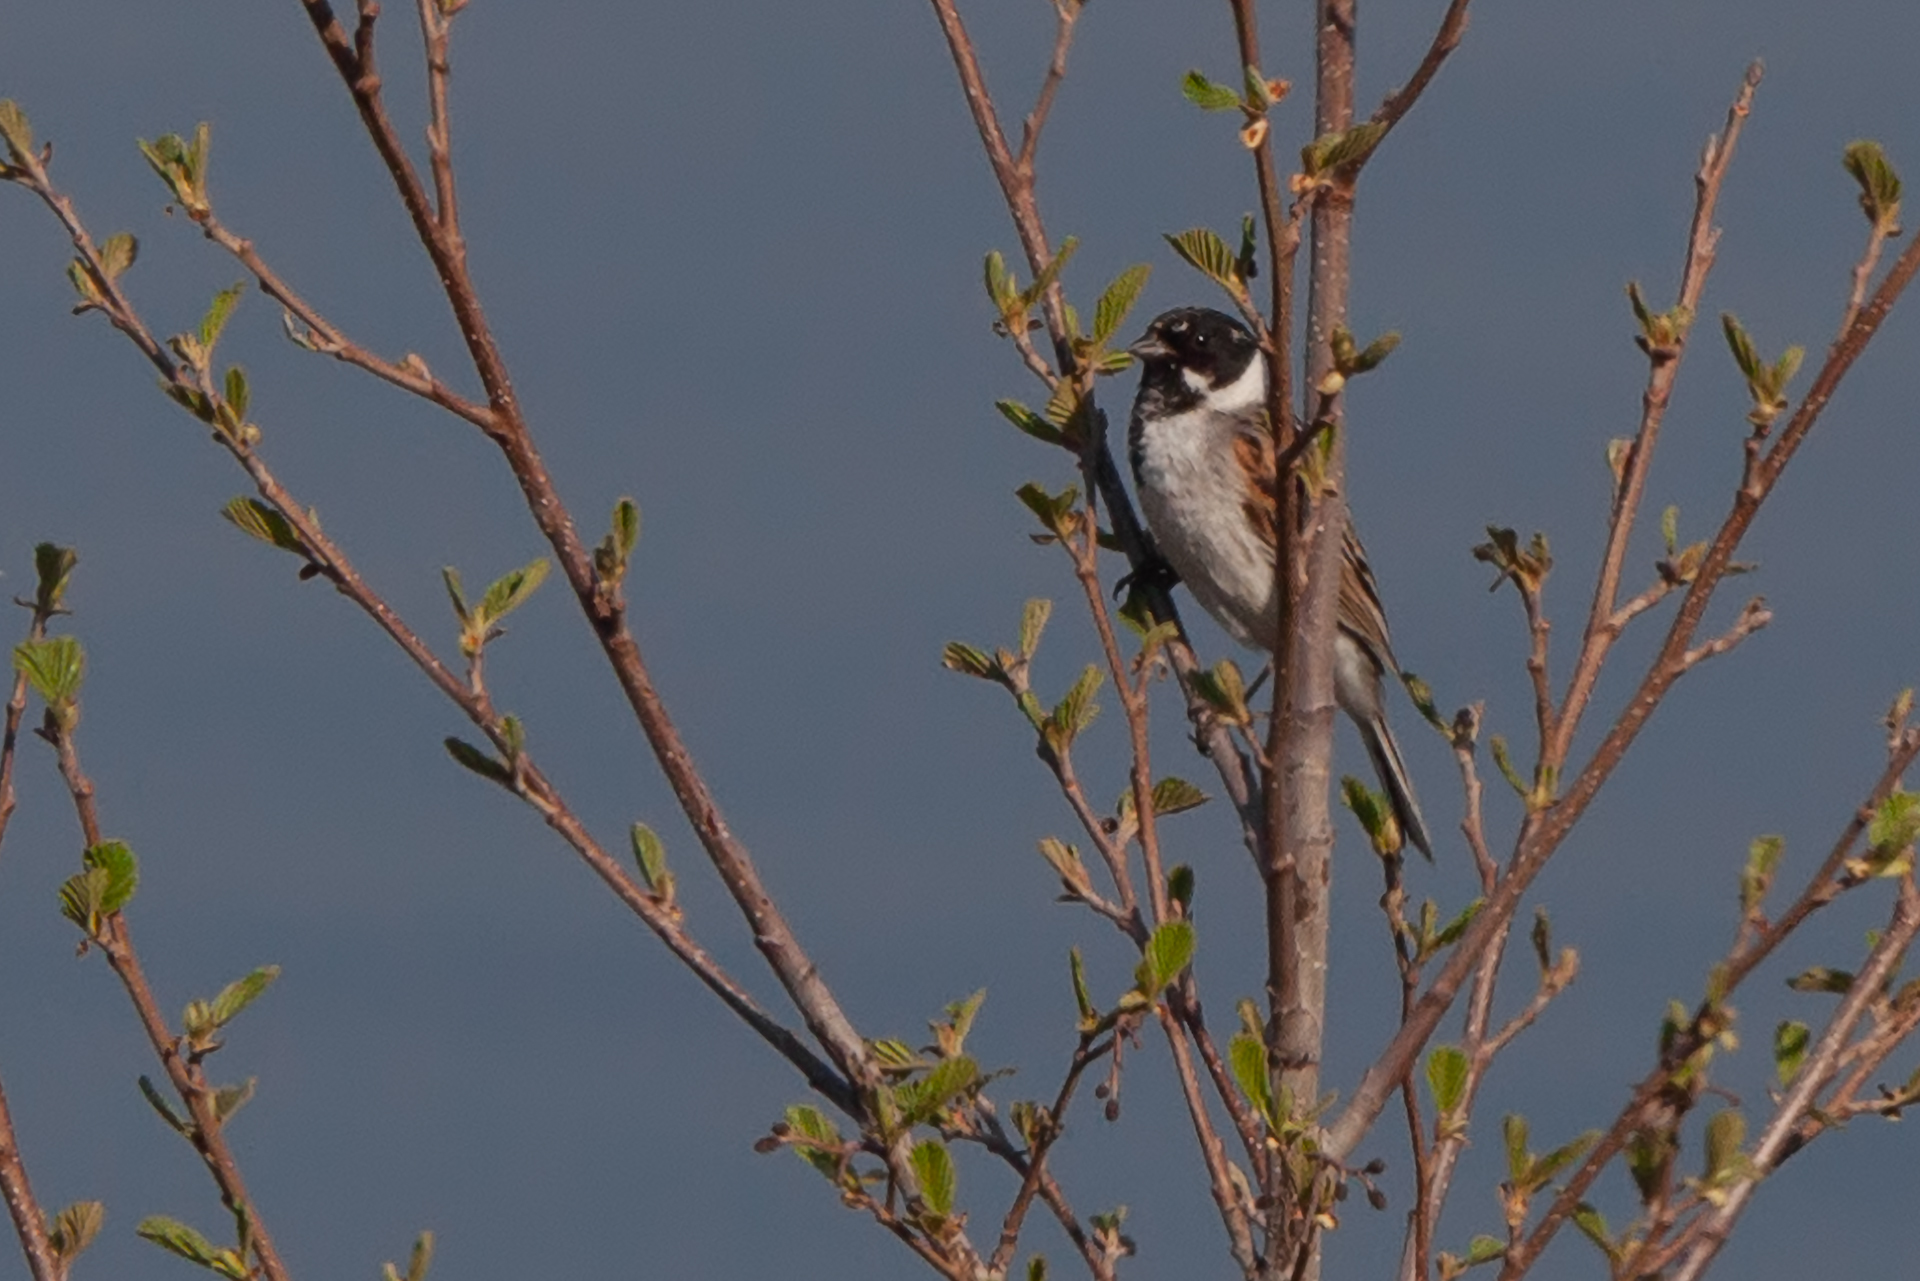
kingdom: Animalia
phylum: Chordata
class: Aves
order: Passeriformes
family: Emberizidae
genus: Emberiza
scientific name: Emberiza schoeniclus
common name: Reed bunting
